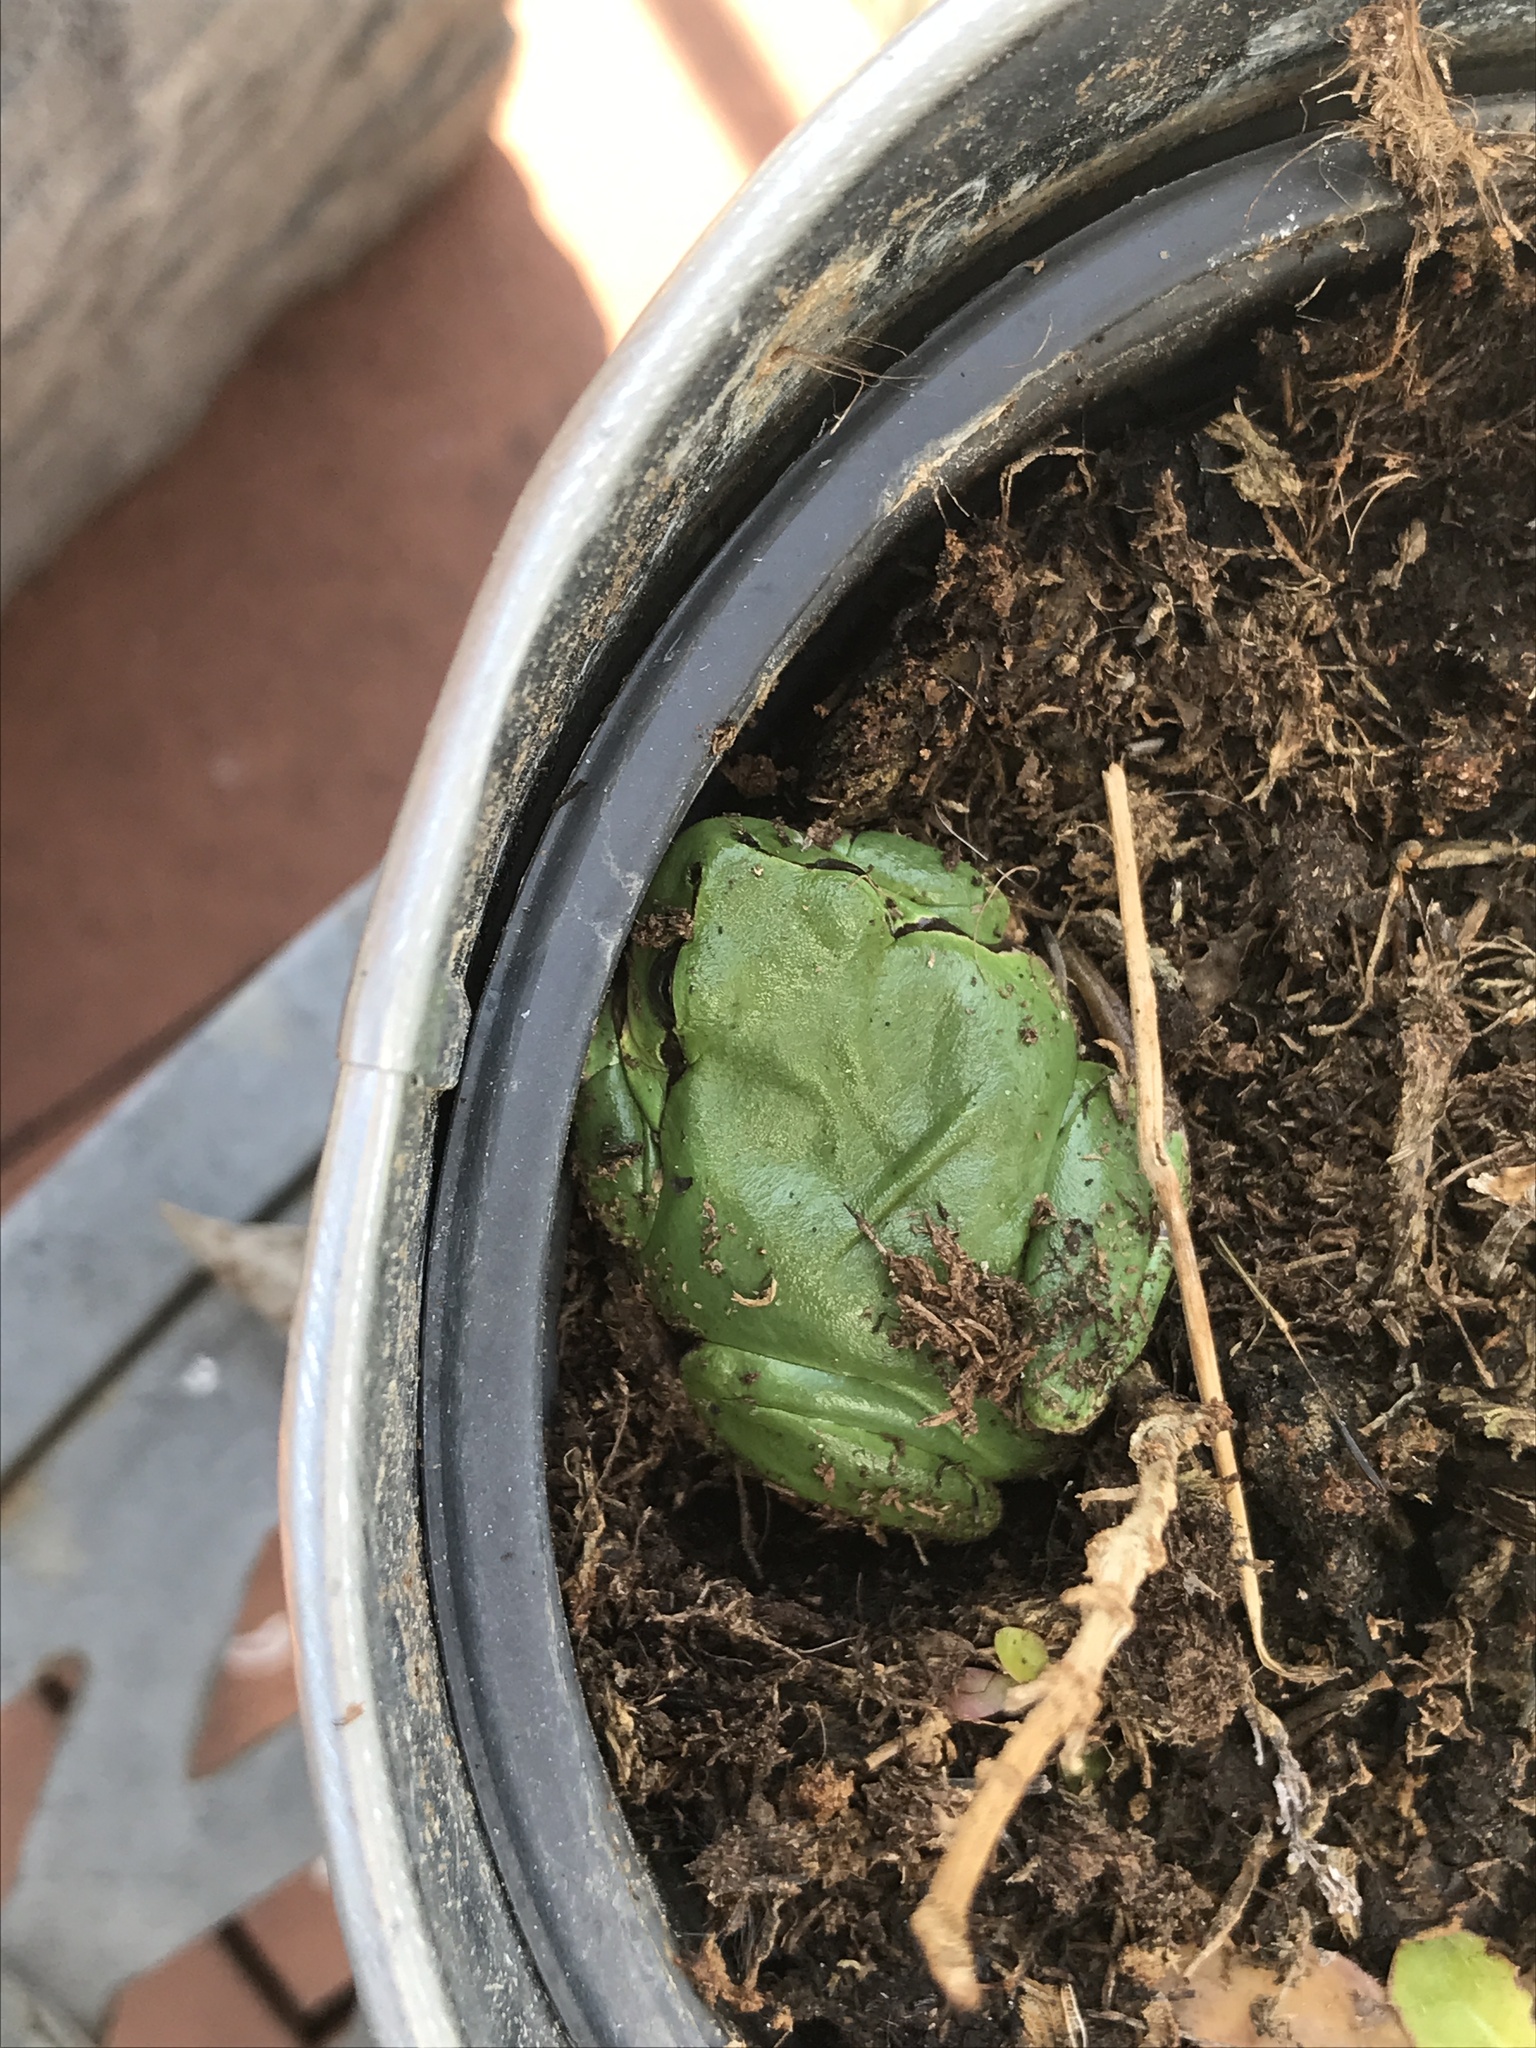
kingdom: Animalia
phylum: Chordata
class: Amphibia
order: Anura
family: Hylidae
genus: Hyla
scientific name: Hyla arborea
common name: Common tree frog
